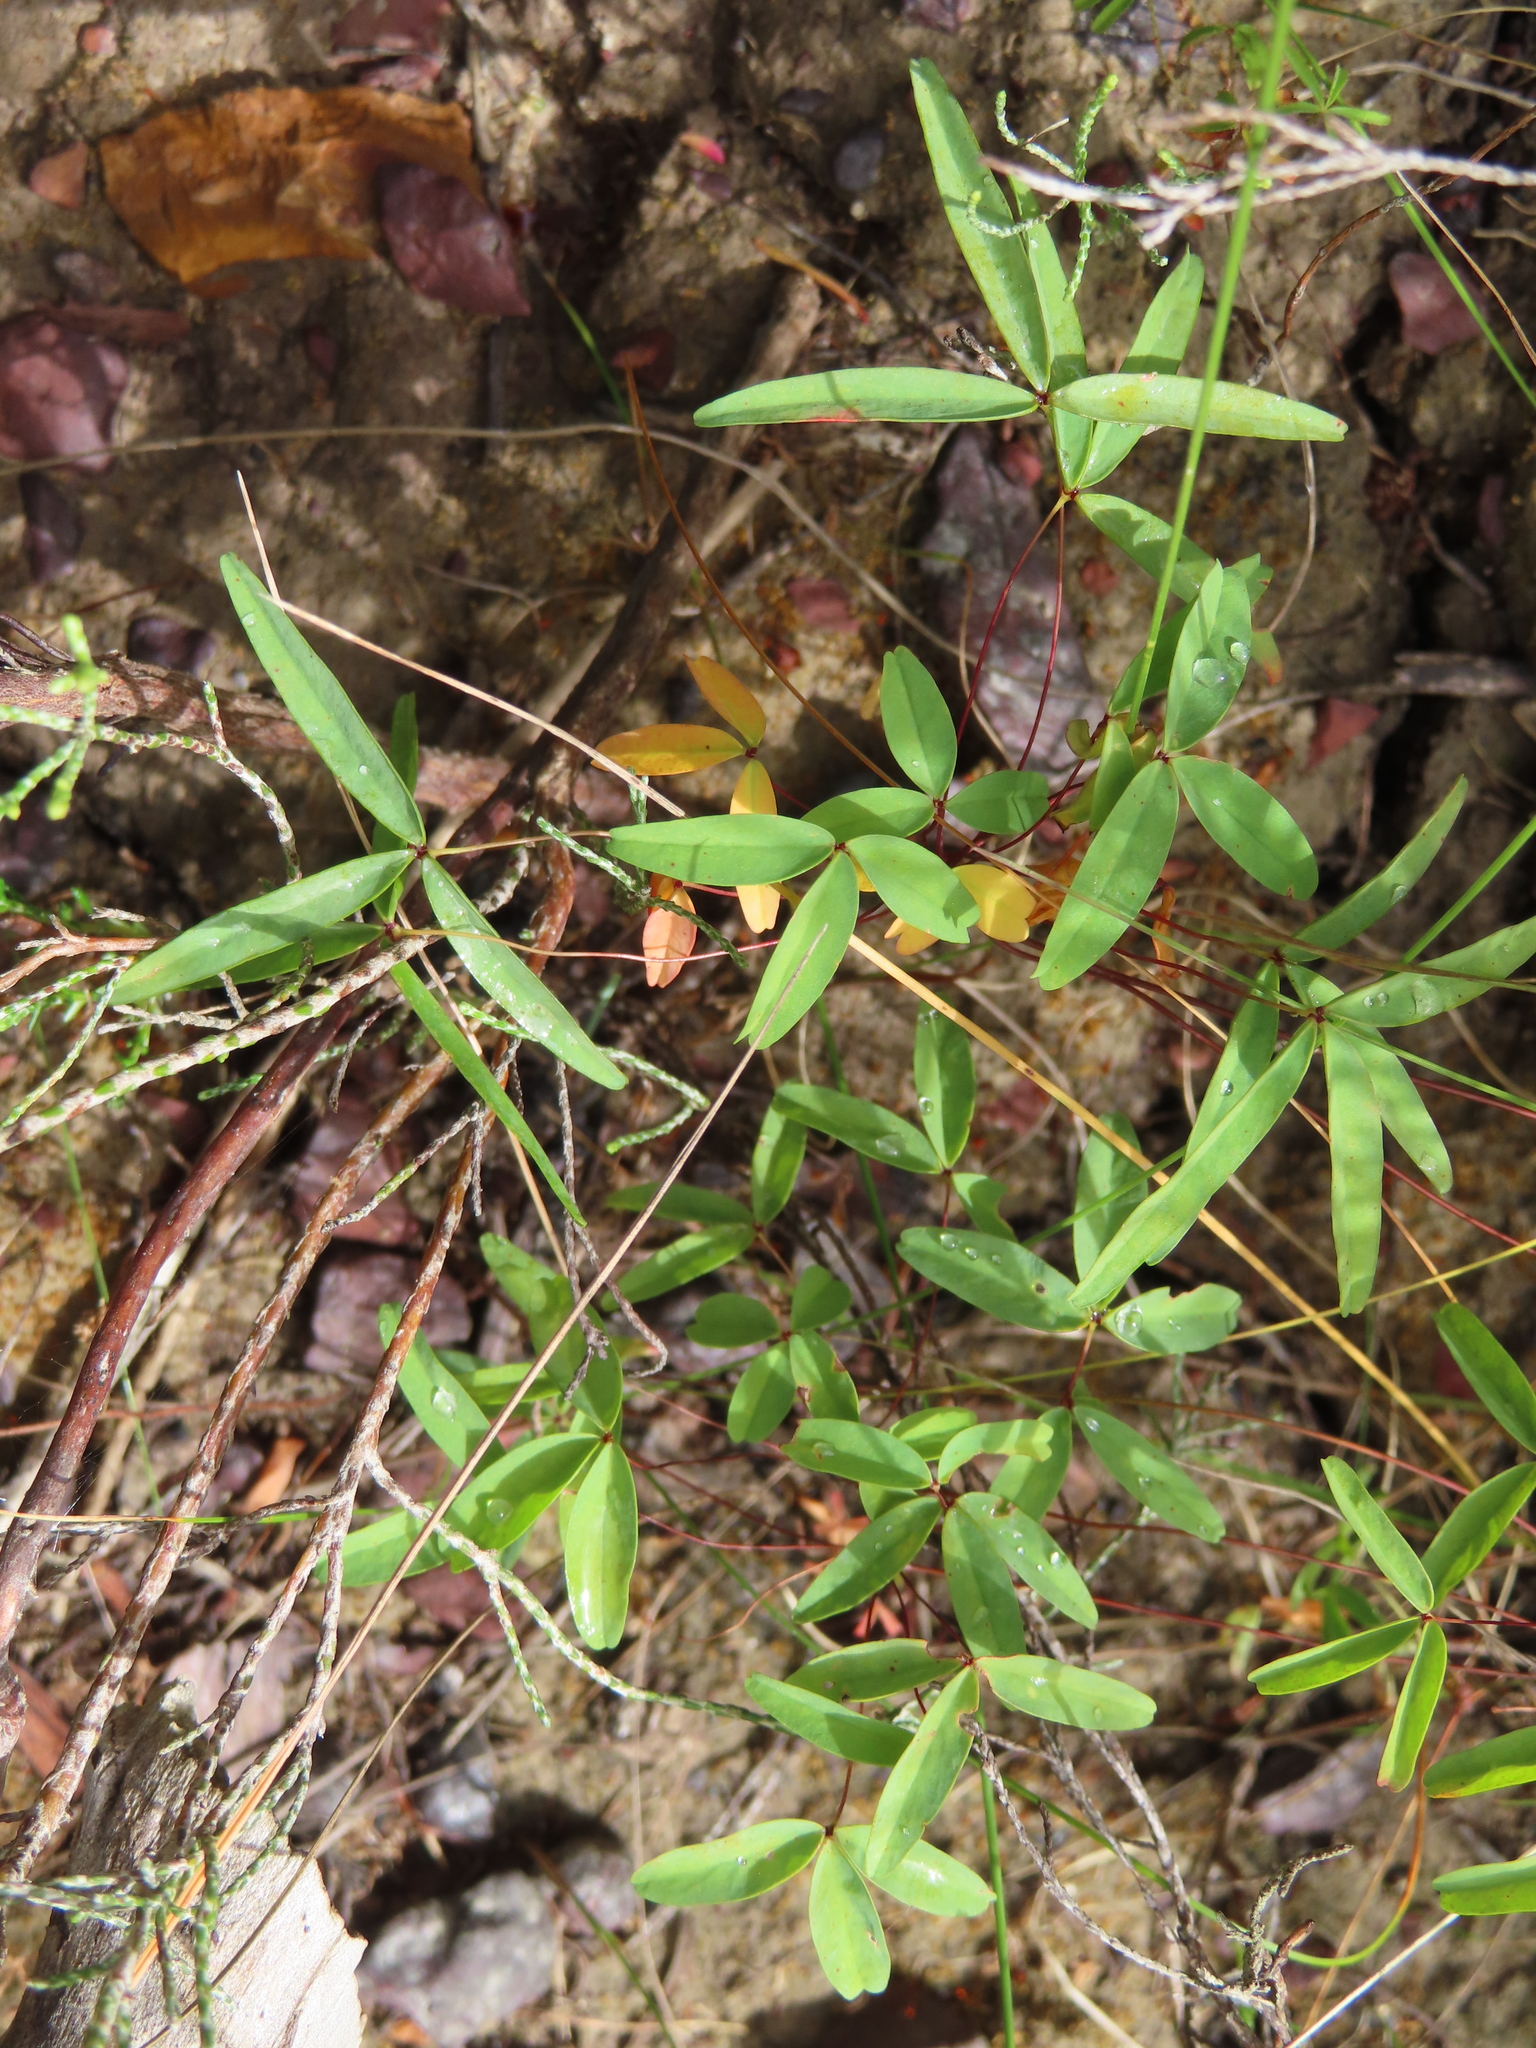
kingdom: Plantae
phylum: Tracheophyta
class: Magnoliopsida
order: Oxalidales
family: Oxalidaceae
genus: Oxalis
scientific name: Oxalis duriuscula
